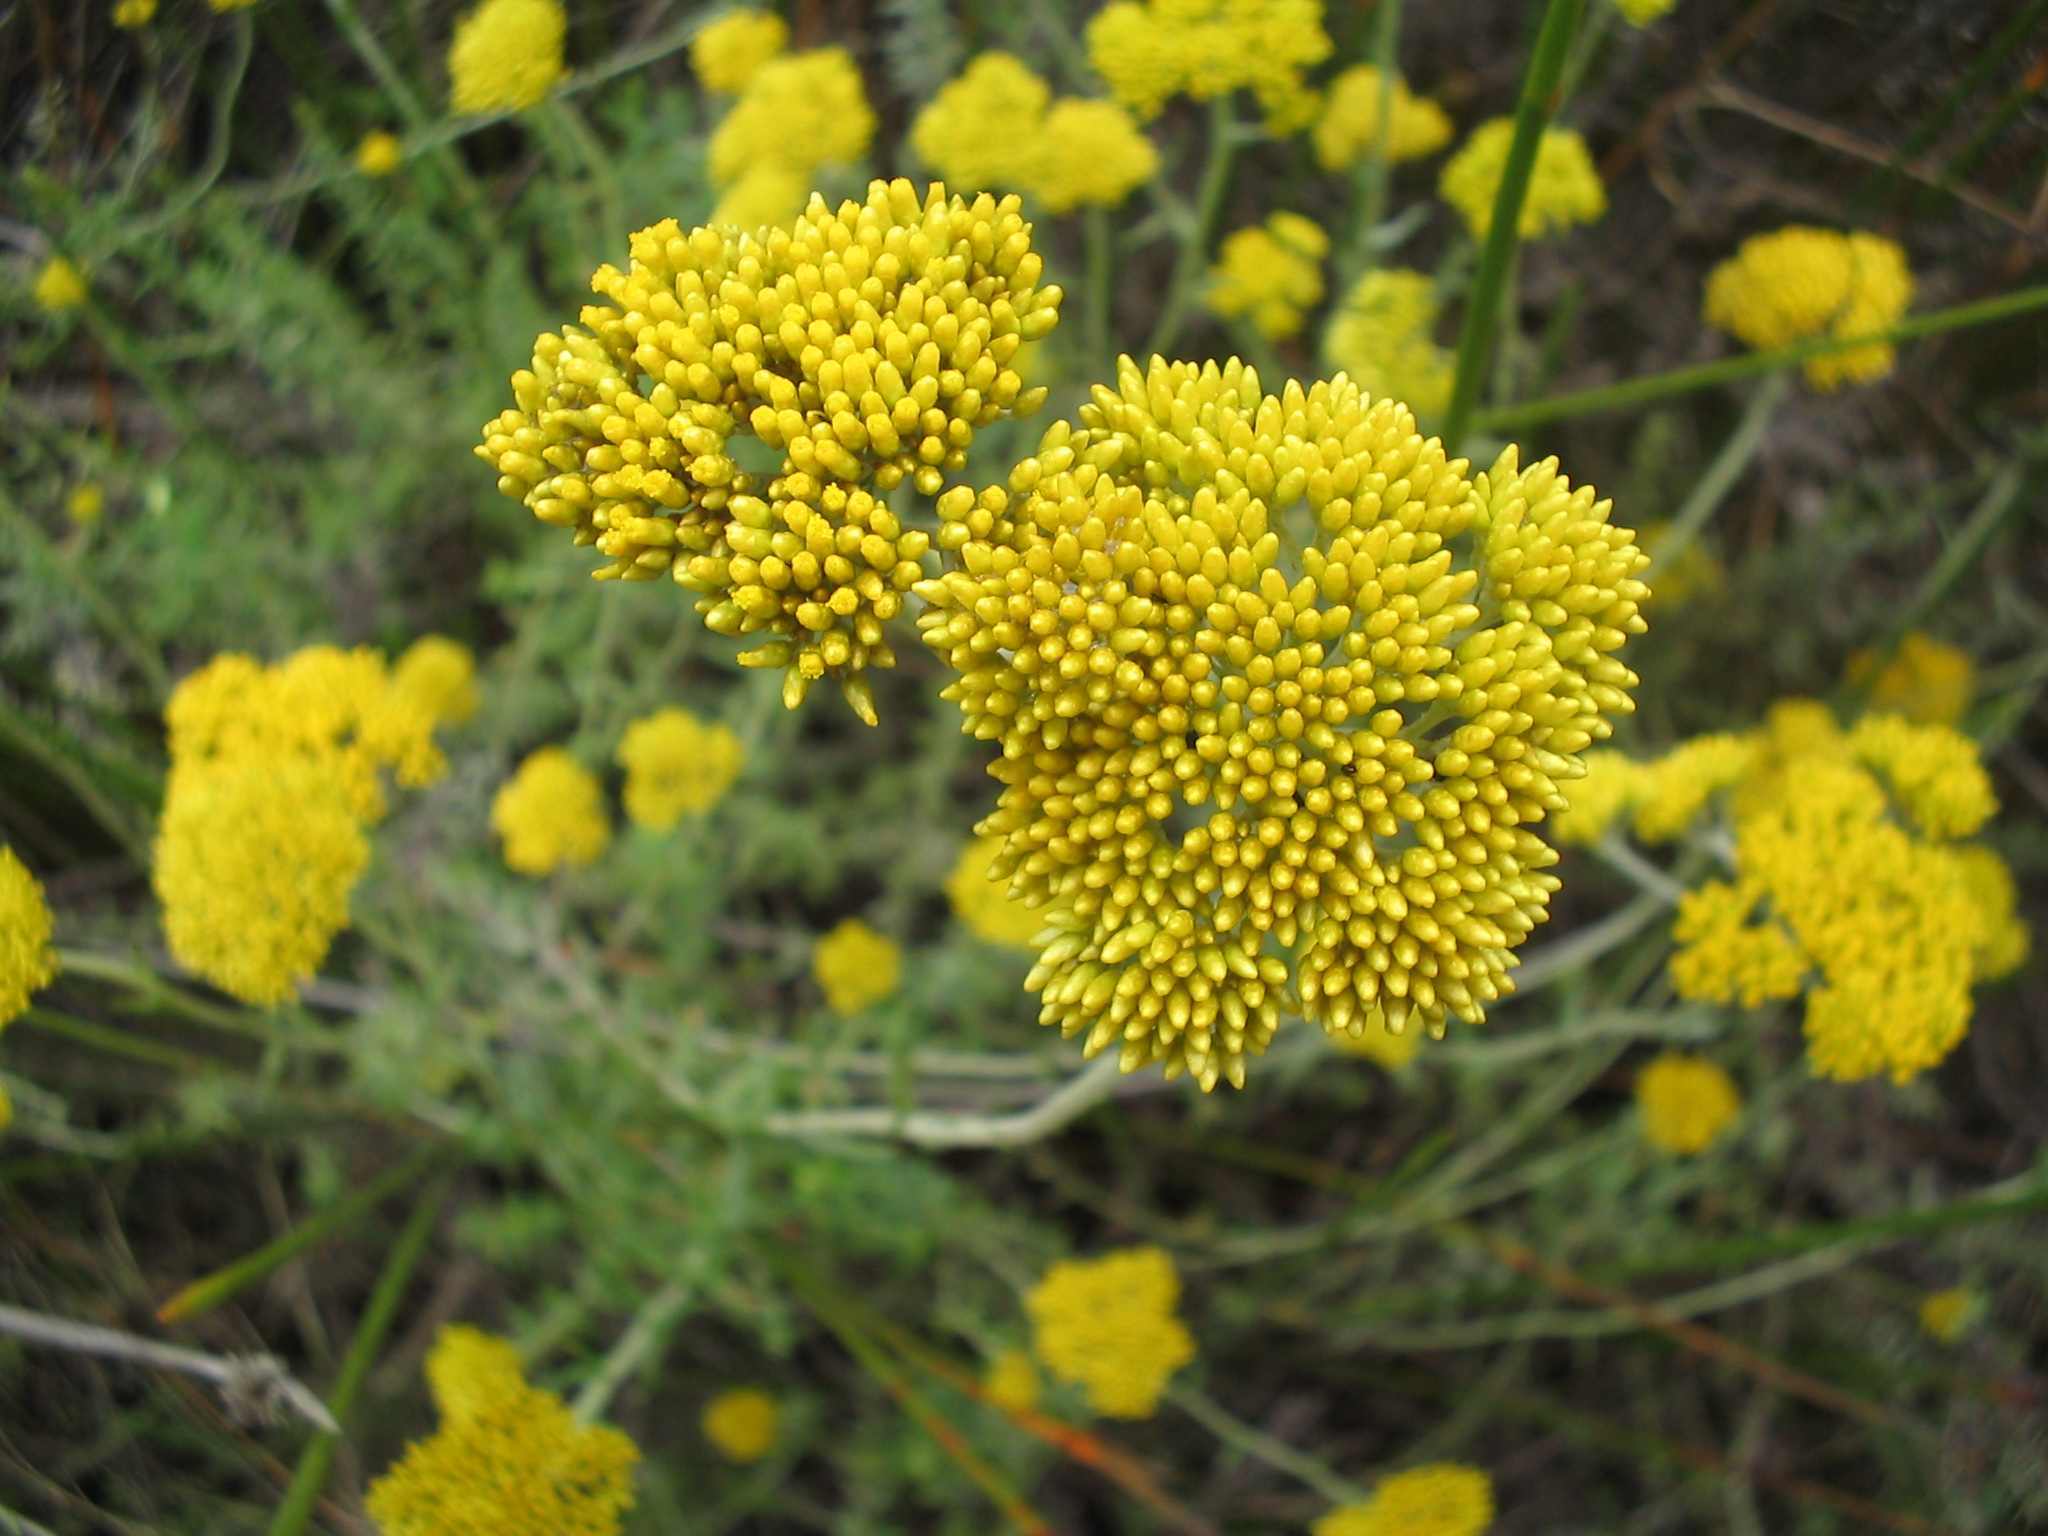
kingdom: Plantae
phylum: Tracheophyta
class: Magnoliopsida
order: Asterales
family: Asteraceae
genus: Helichrysum
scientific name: Helichrysum cymosum
